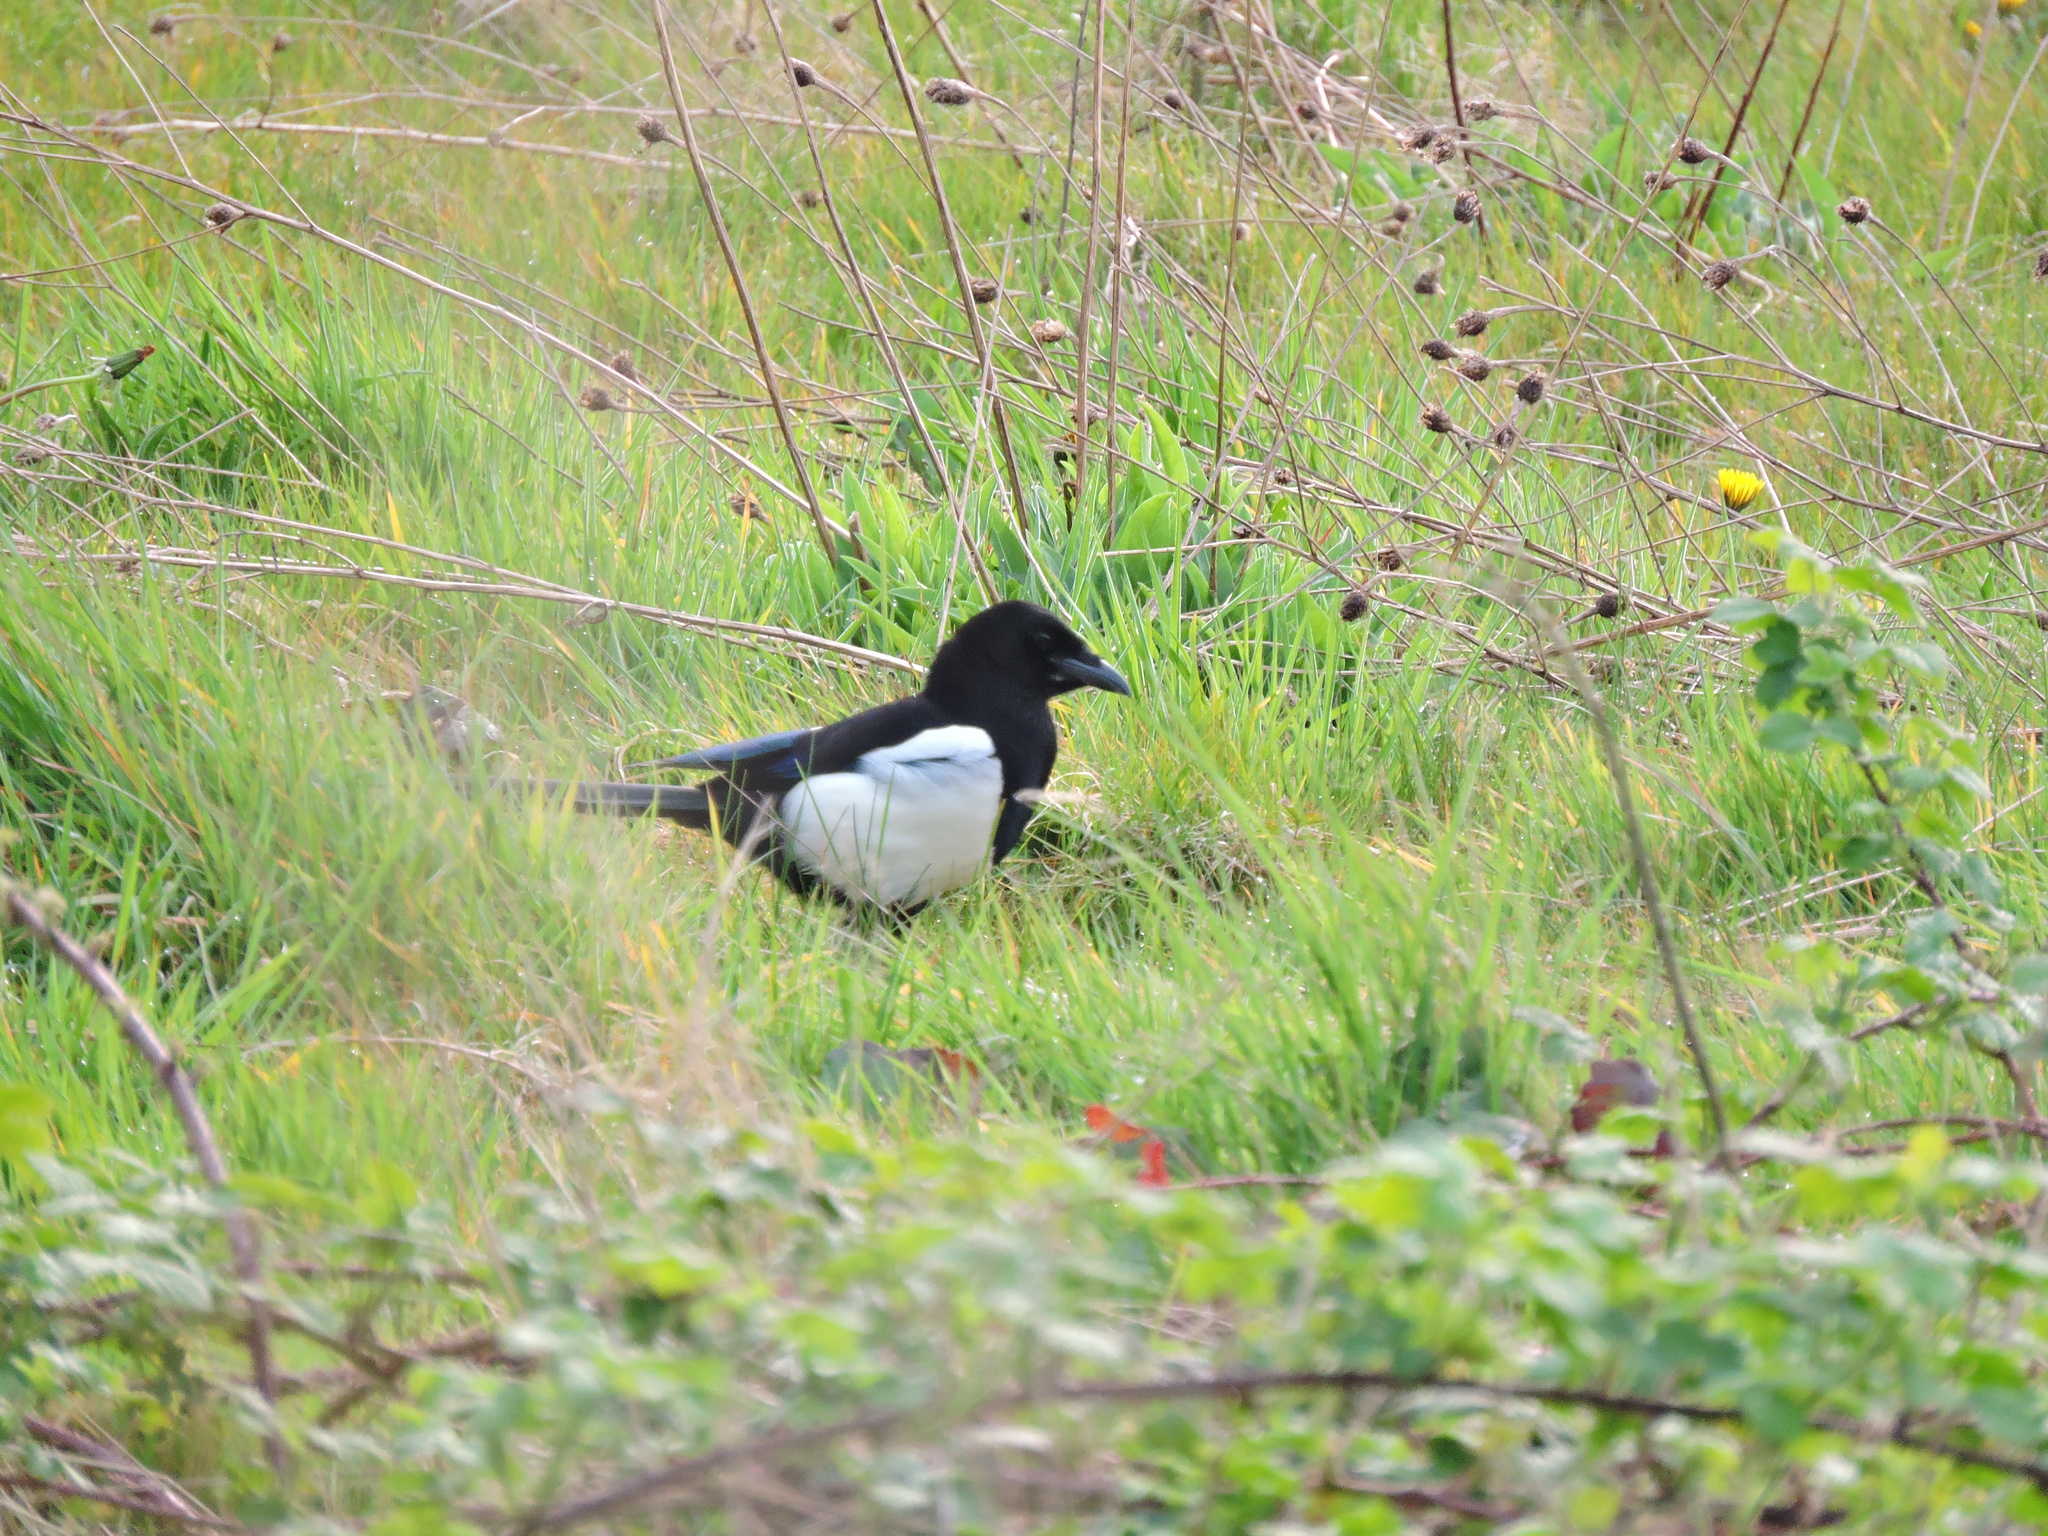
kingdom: Animalia
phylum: Chordata
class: Aves
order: Passeriformes
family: Corvidae
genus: Pica
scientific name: Pica pica
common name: Eurasian magpie
